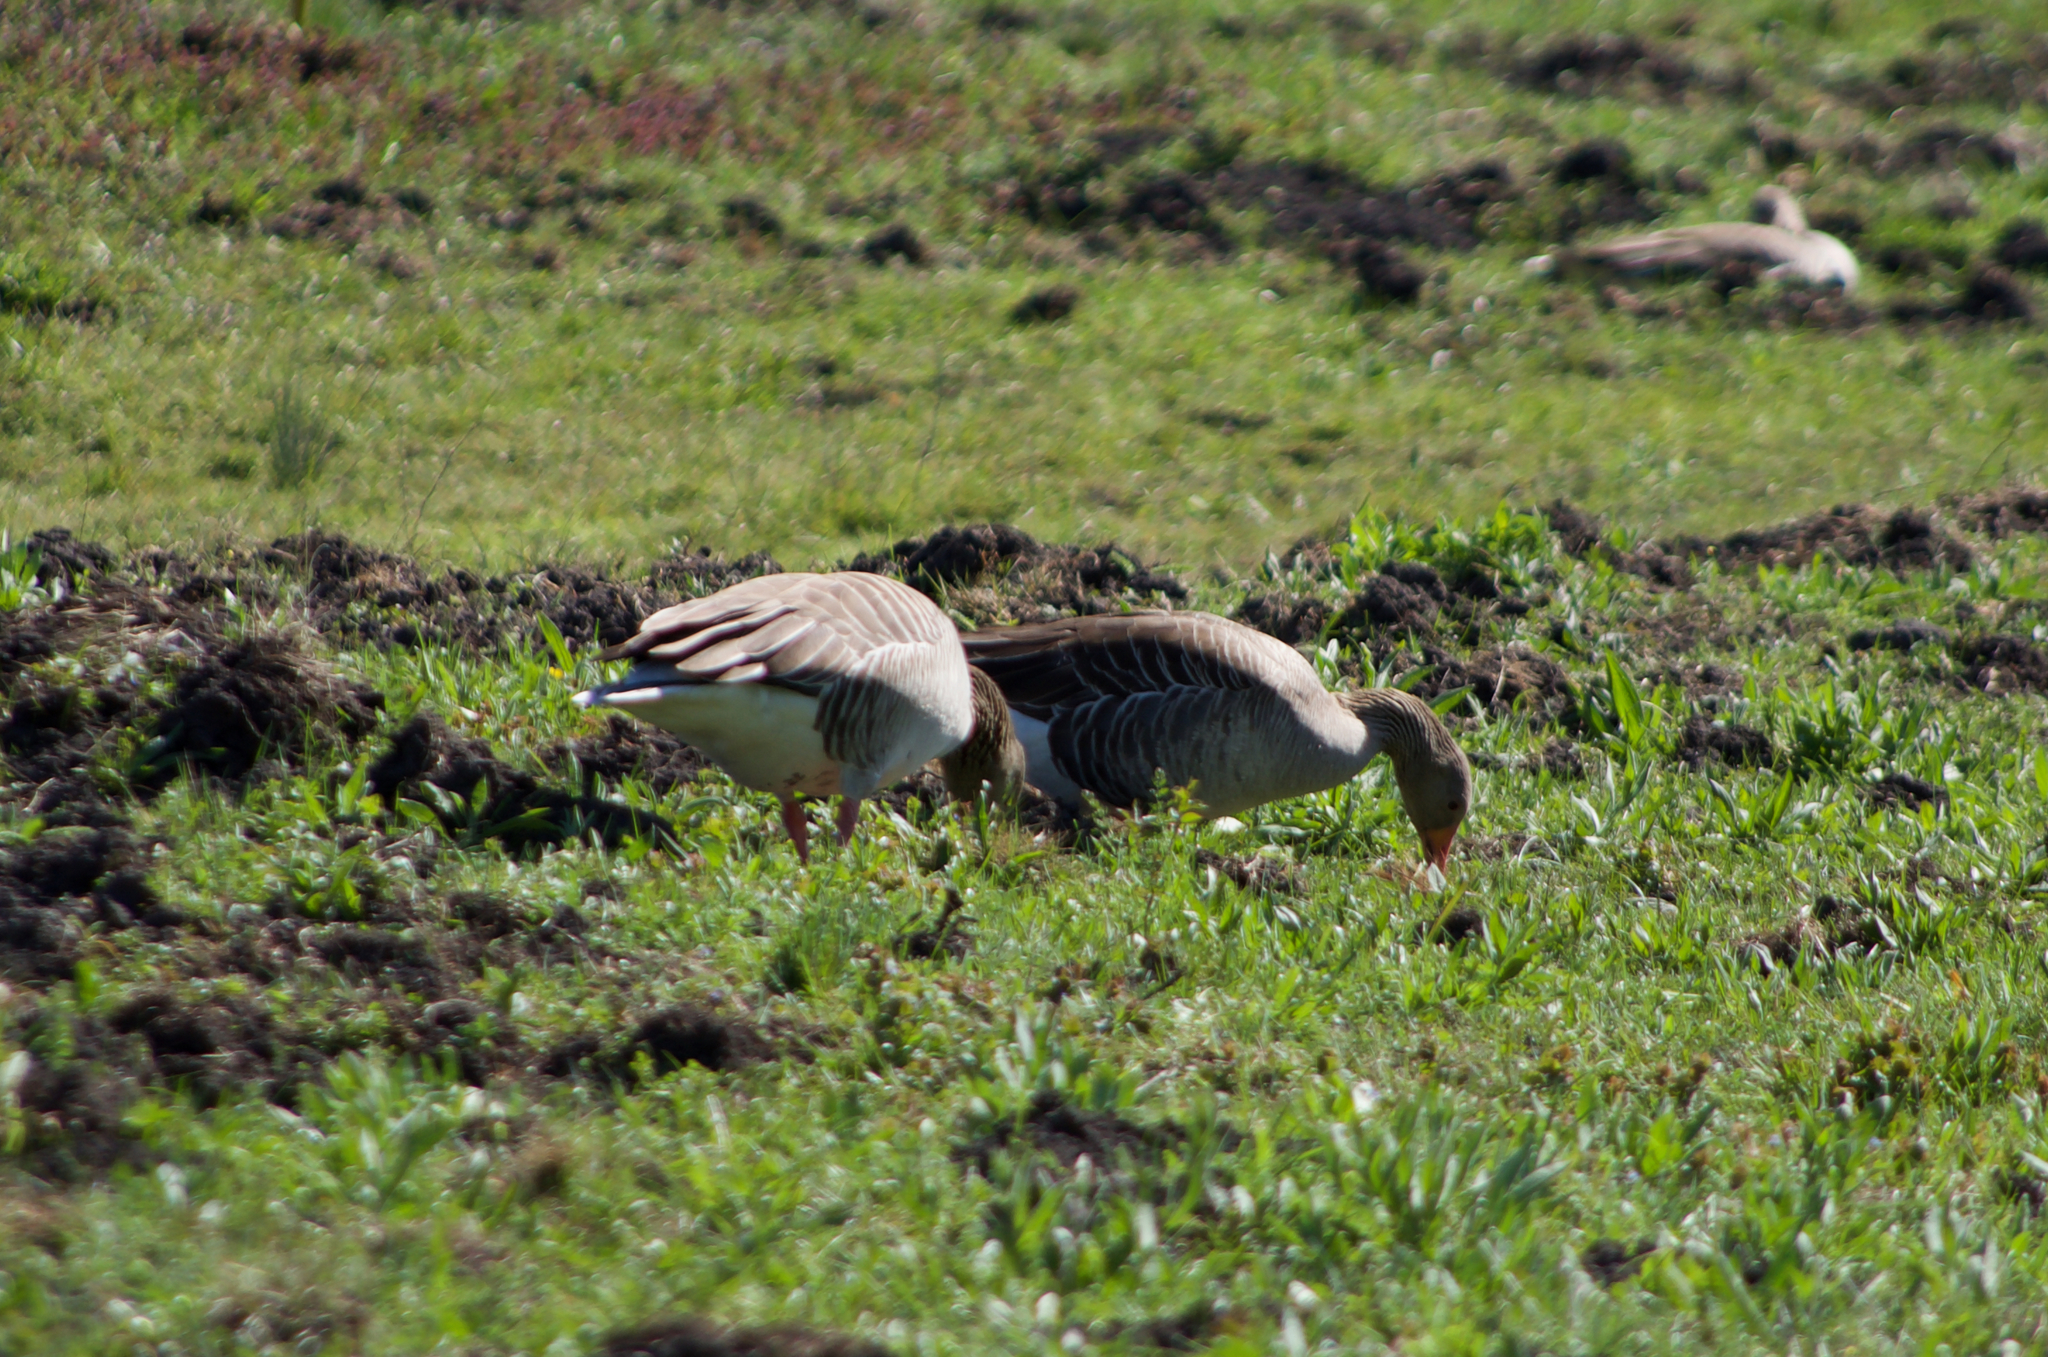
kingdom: Animalia
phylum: Chordata
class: Aves
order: Anseriformes
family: Anatidae
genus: Anser
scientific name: Anser anser
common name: Greylag goose
